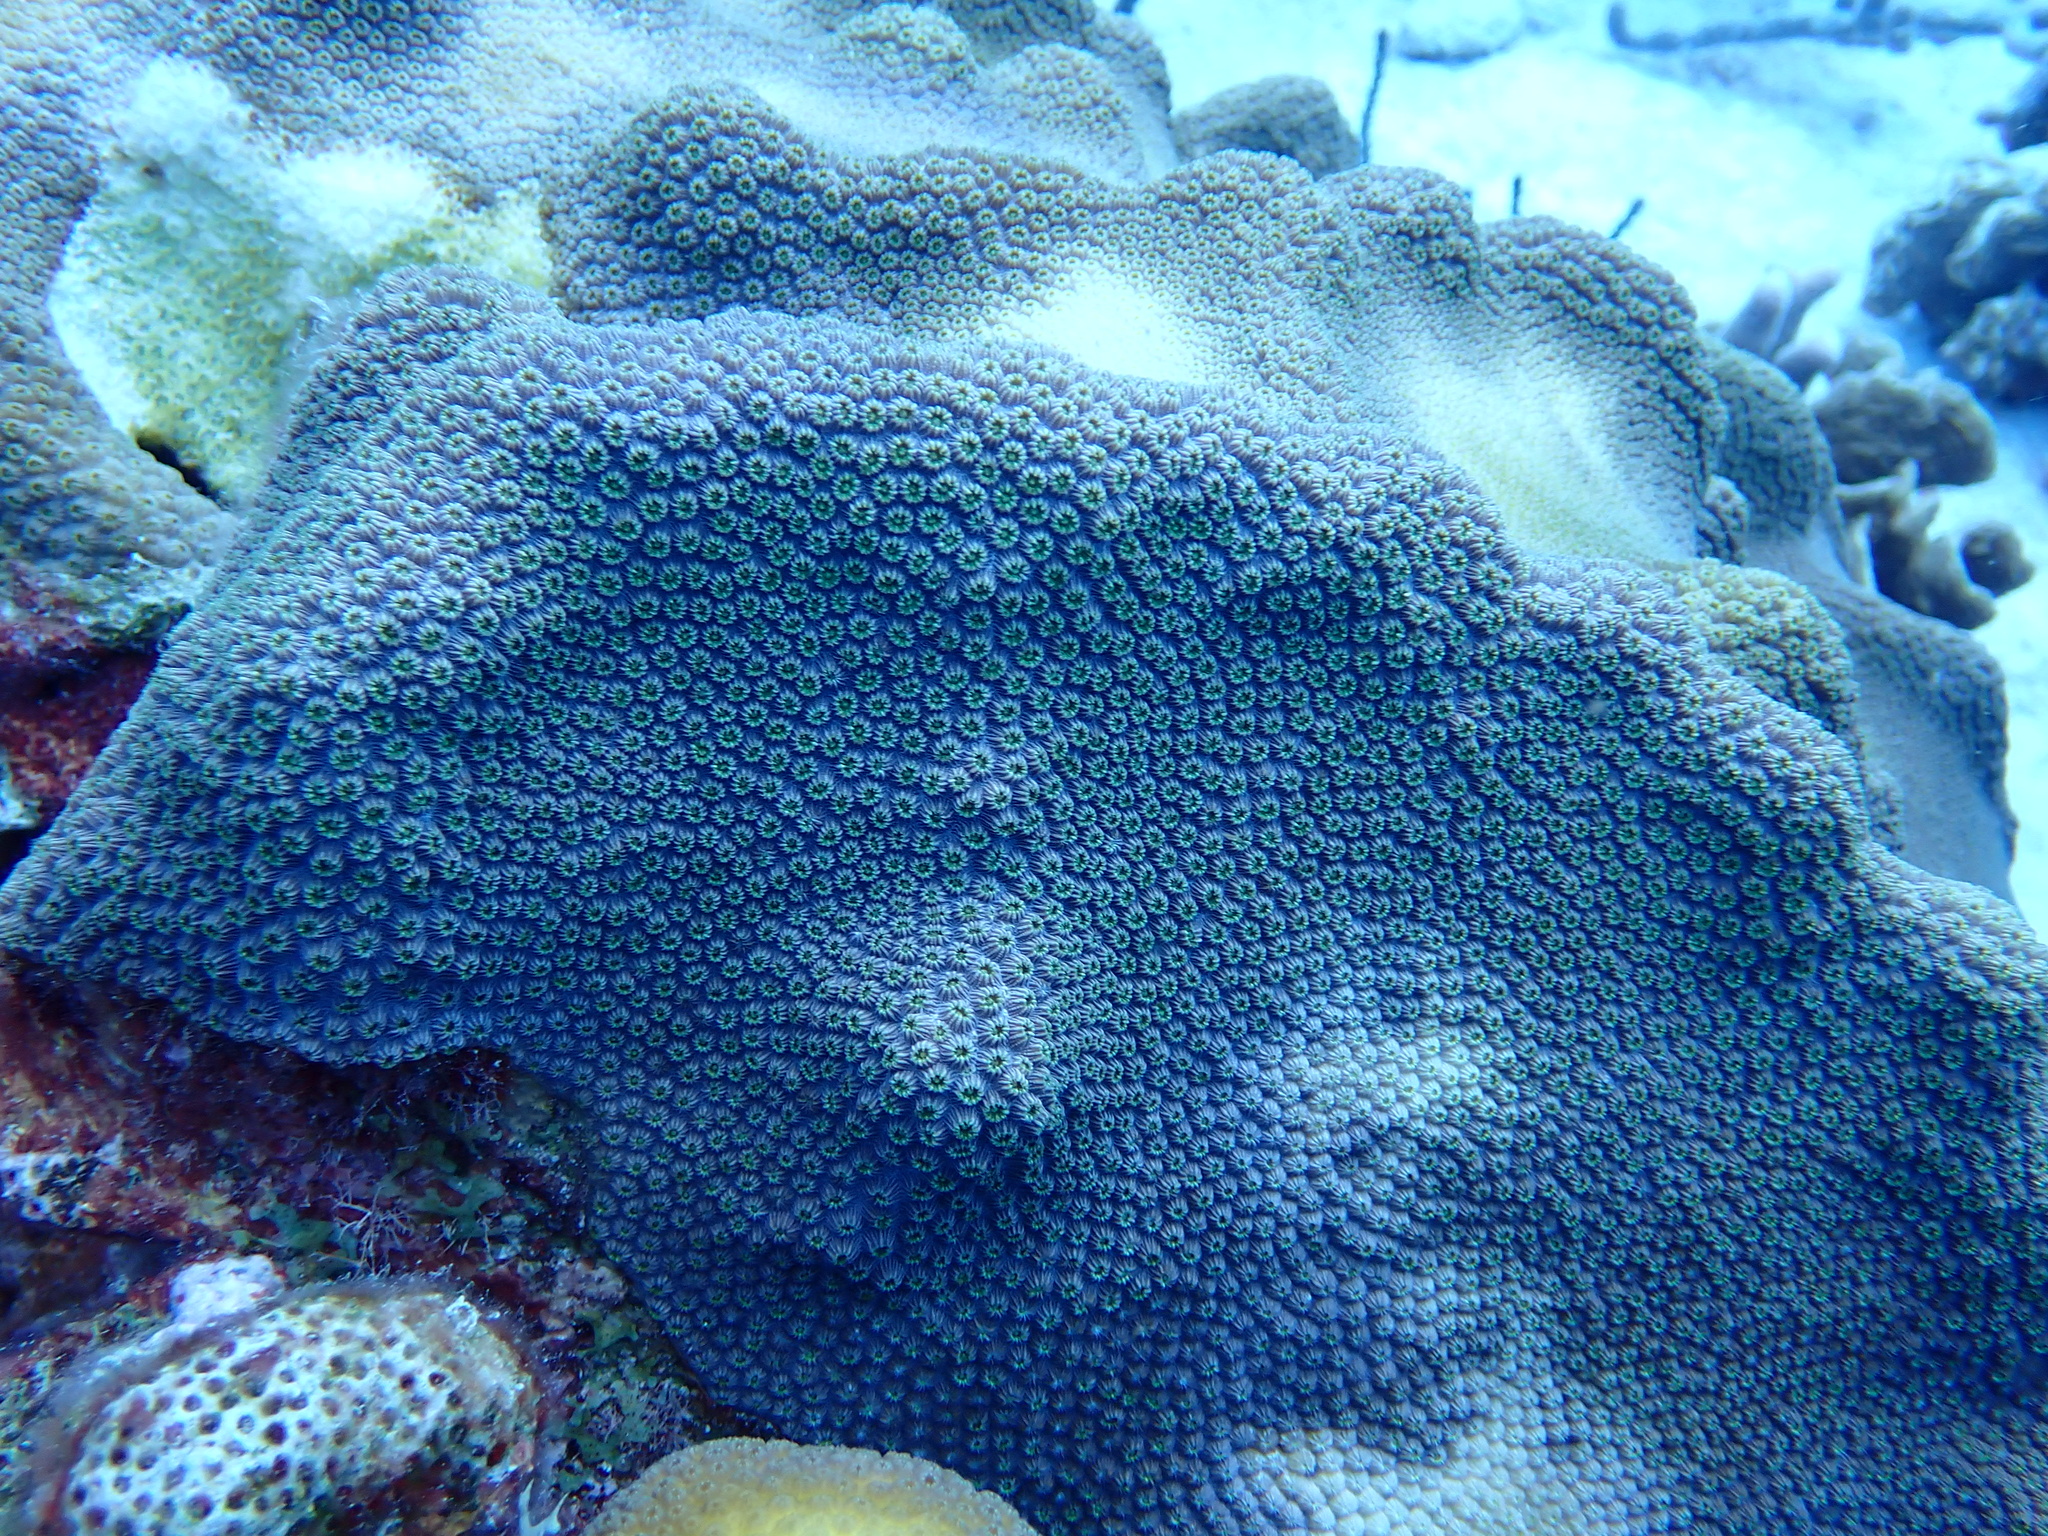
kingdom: Animalia
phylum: Cnidaria
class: Anthozoa
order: Scleractinia
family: Merulinidae
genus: Orbicella
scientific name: Orbicella faveolata
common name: Mountainous star coral
